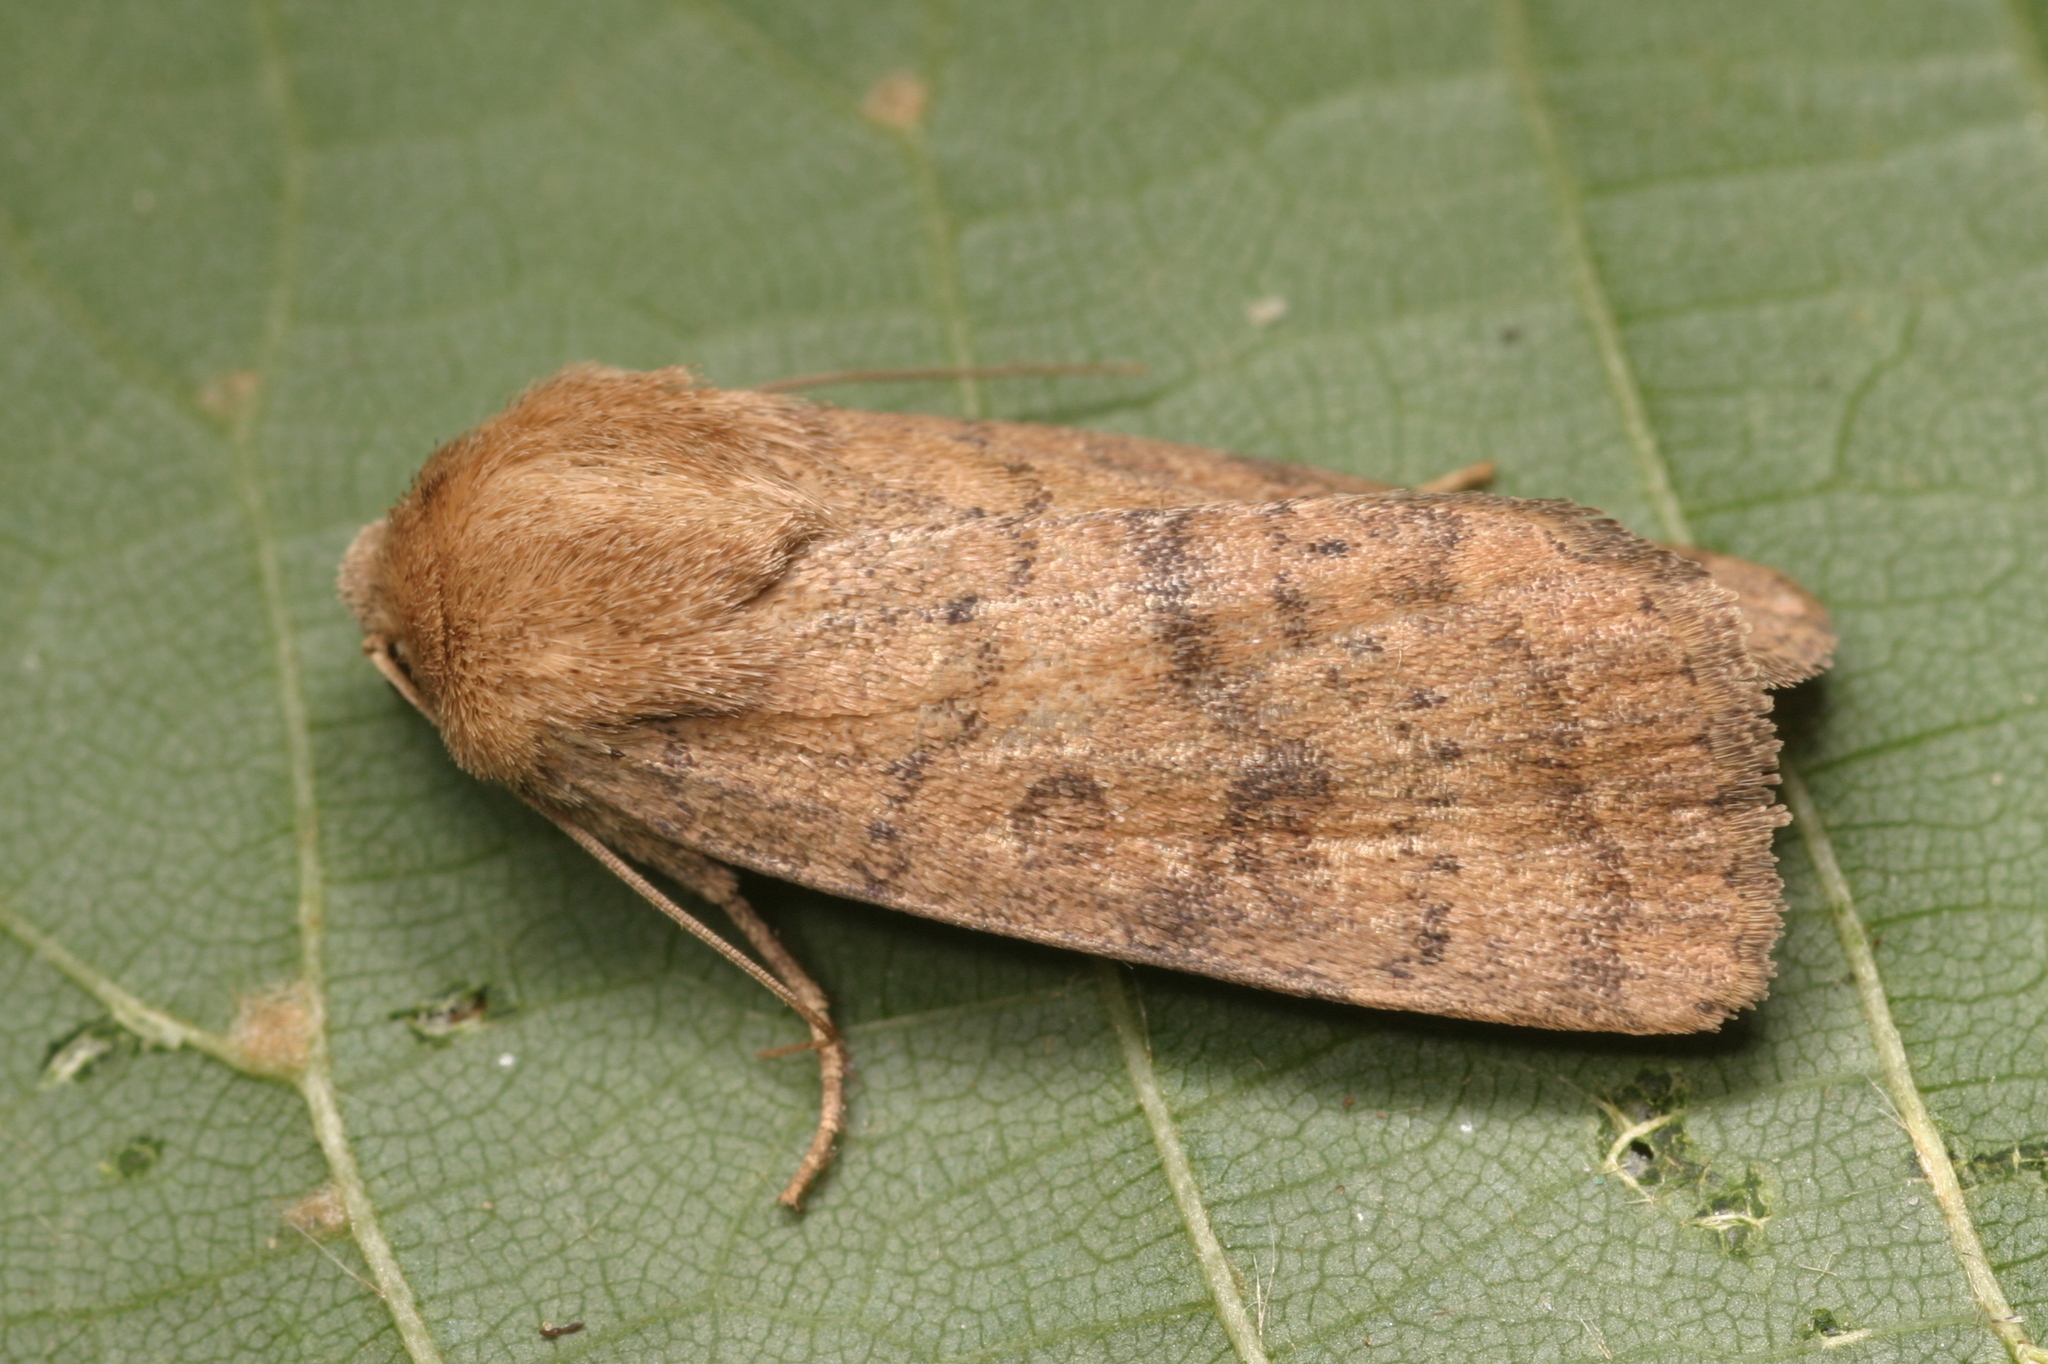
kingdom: Animalia
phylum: Arthropoda
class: Insecta
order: Lepidoptera
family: Noctuidae
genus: Hoplodrina
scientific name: Hoplodrina octogenaria
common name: Uncertain
